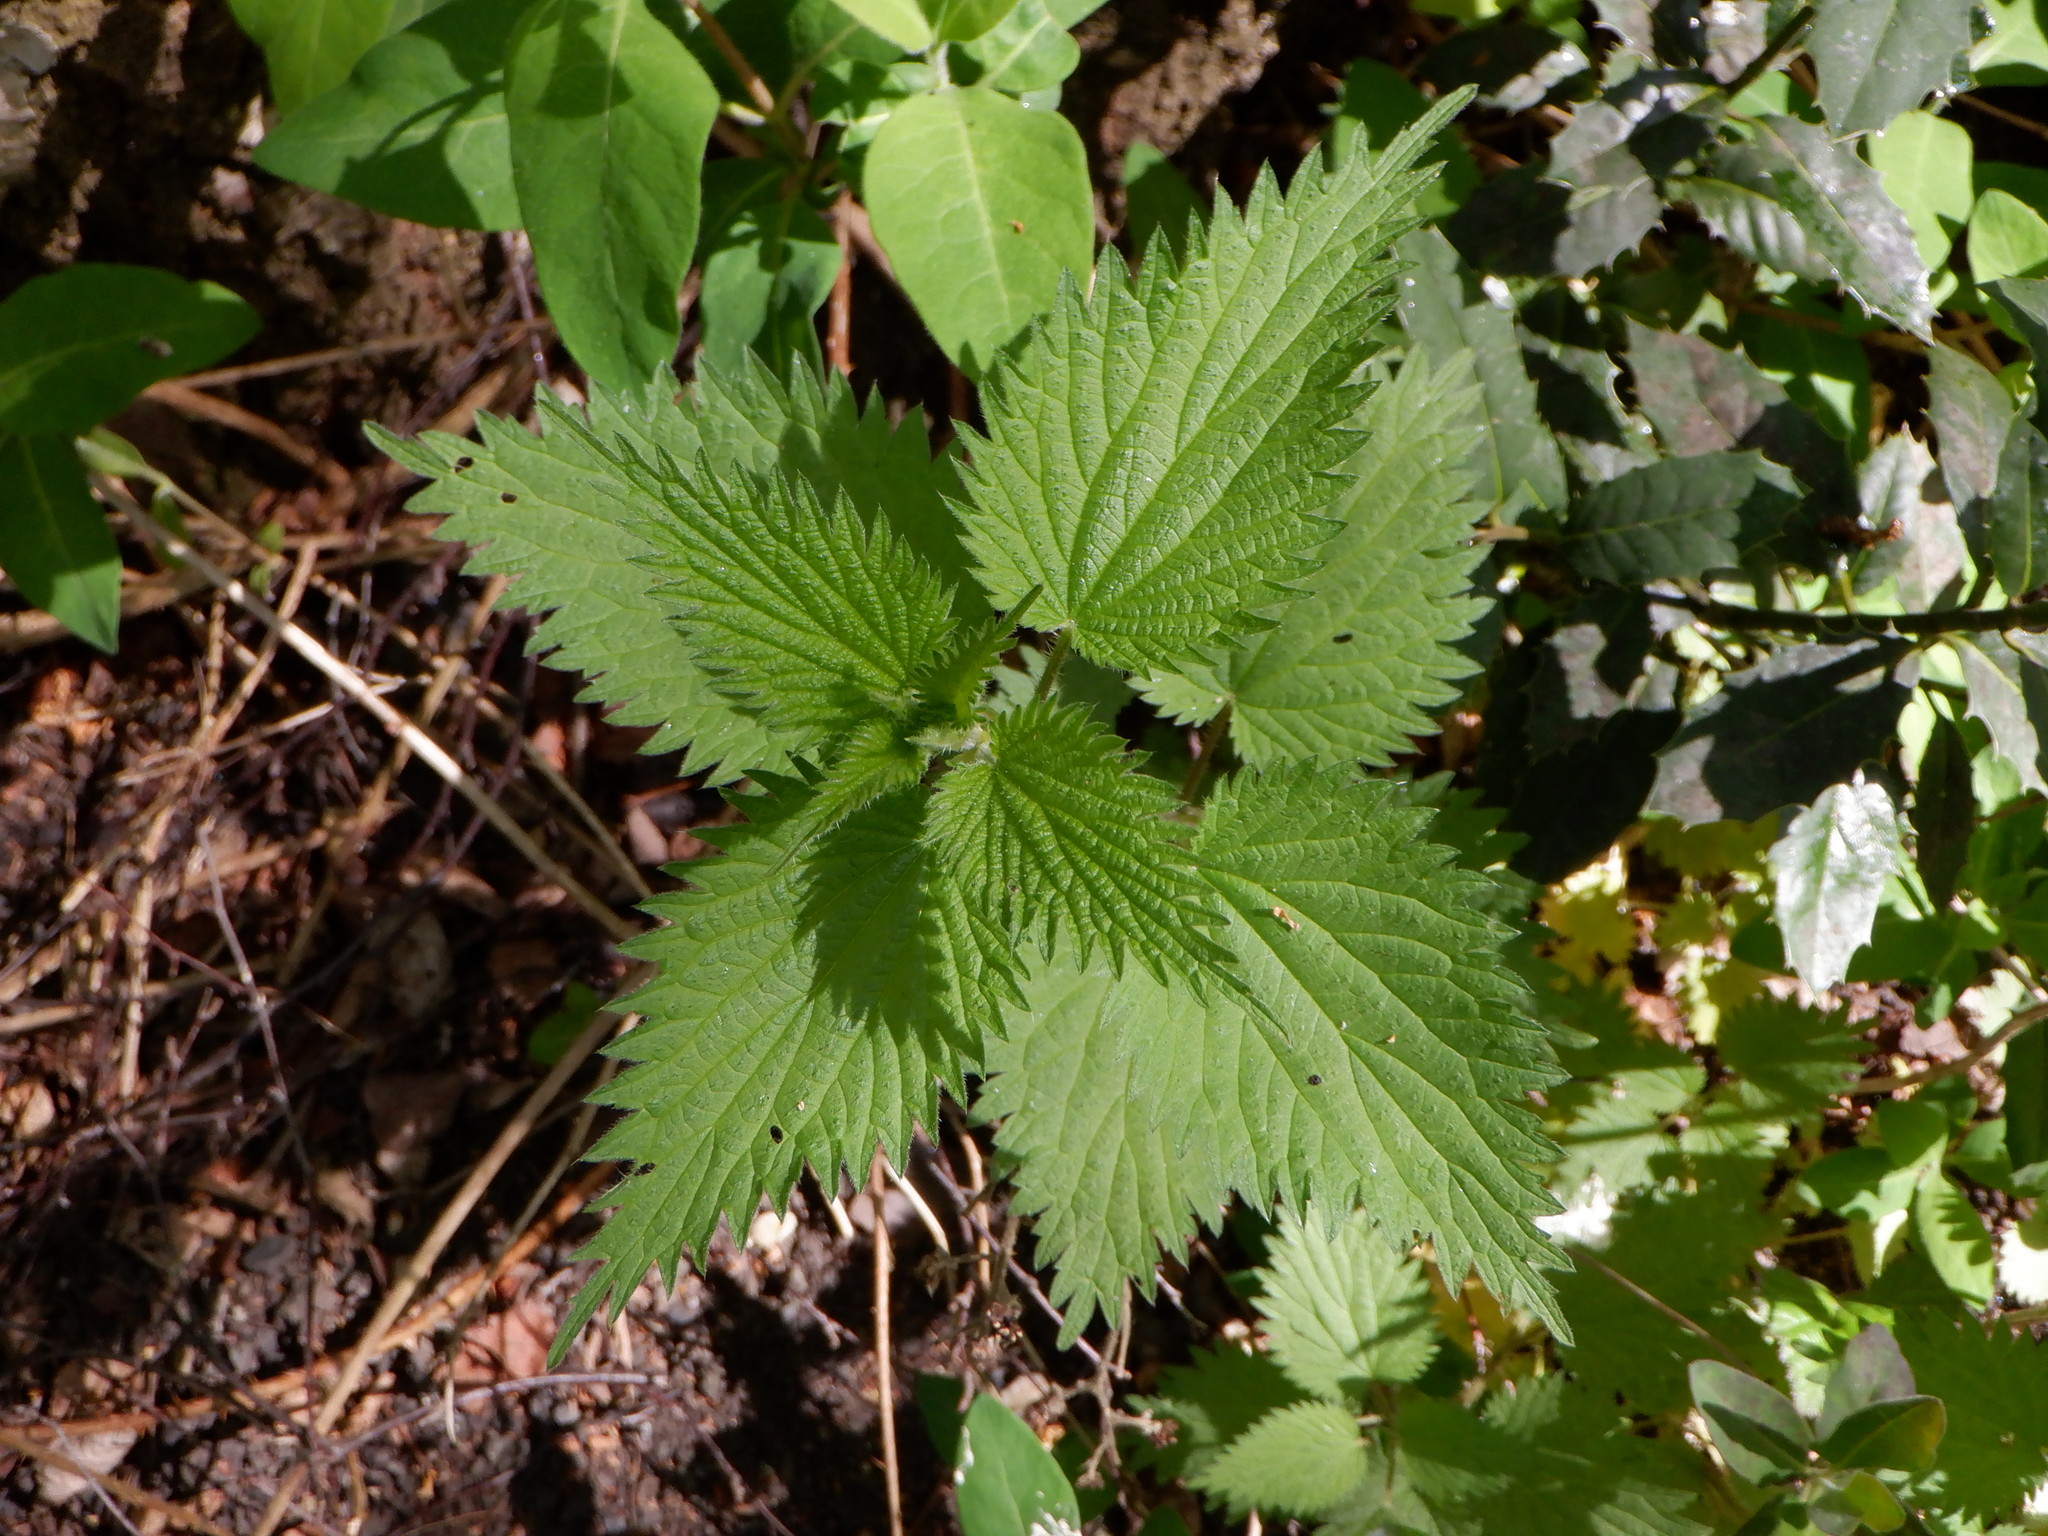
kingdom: Plantae
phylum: Tracheophyta
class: Magnoliopsida
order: Rosales
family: Urticaceae
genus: Urtica
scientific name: Urtica dioica
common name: Common nettle
